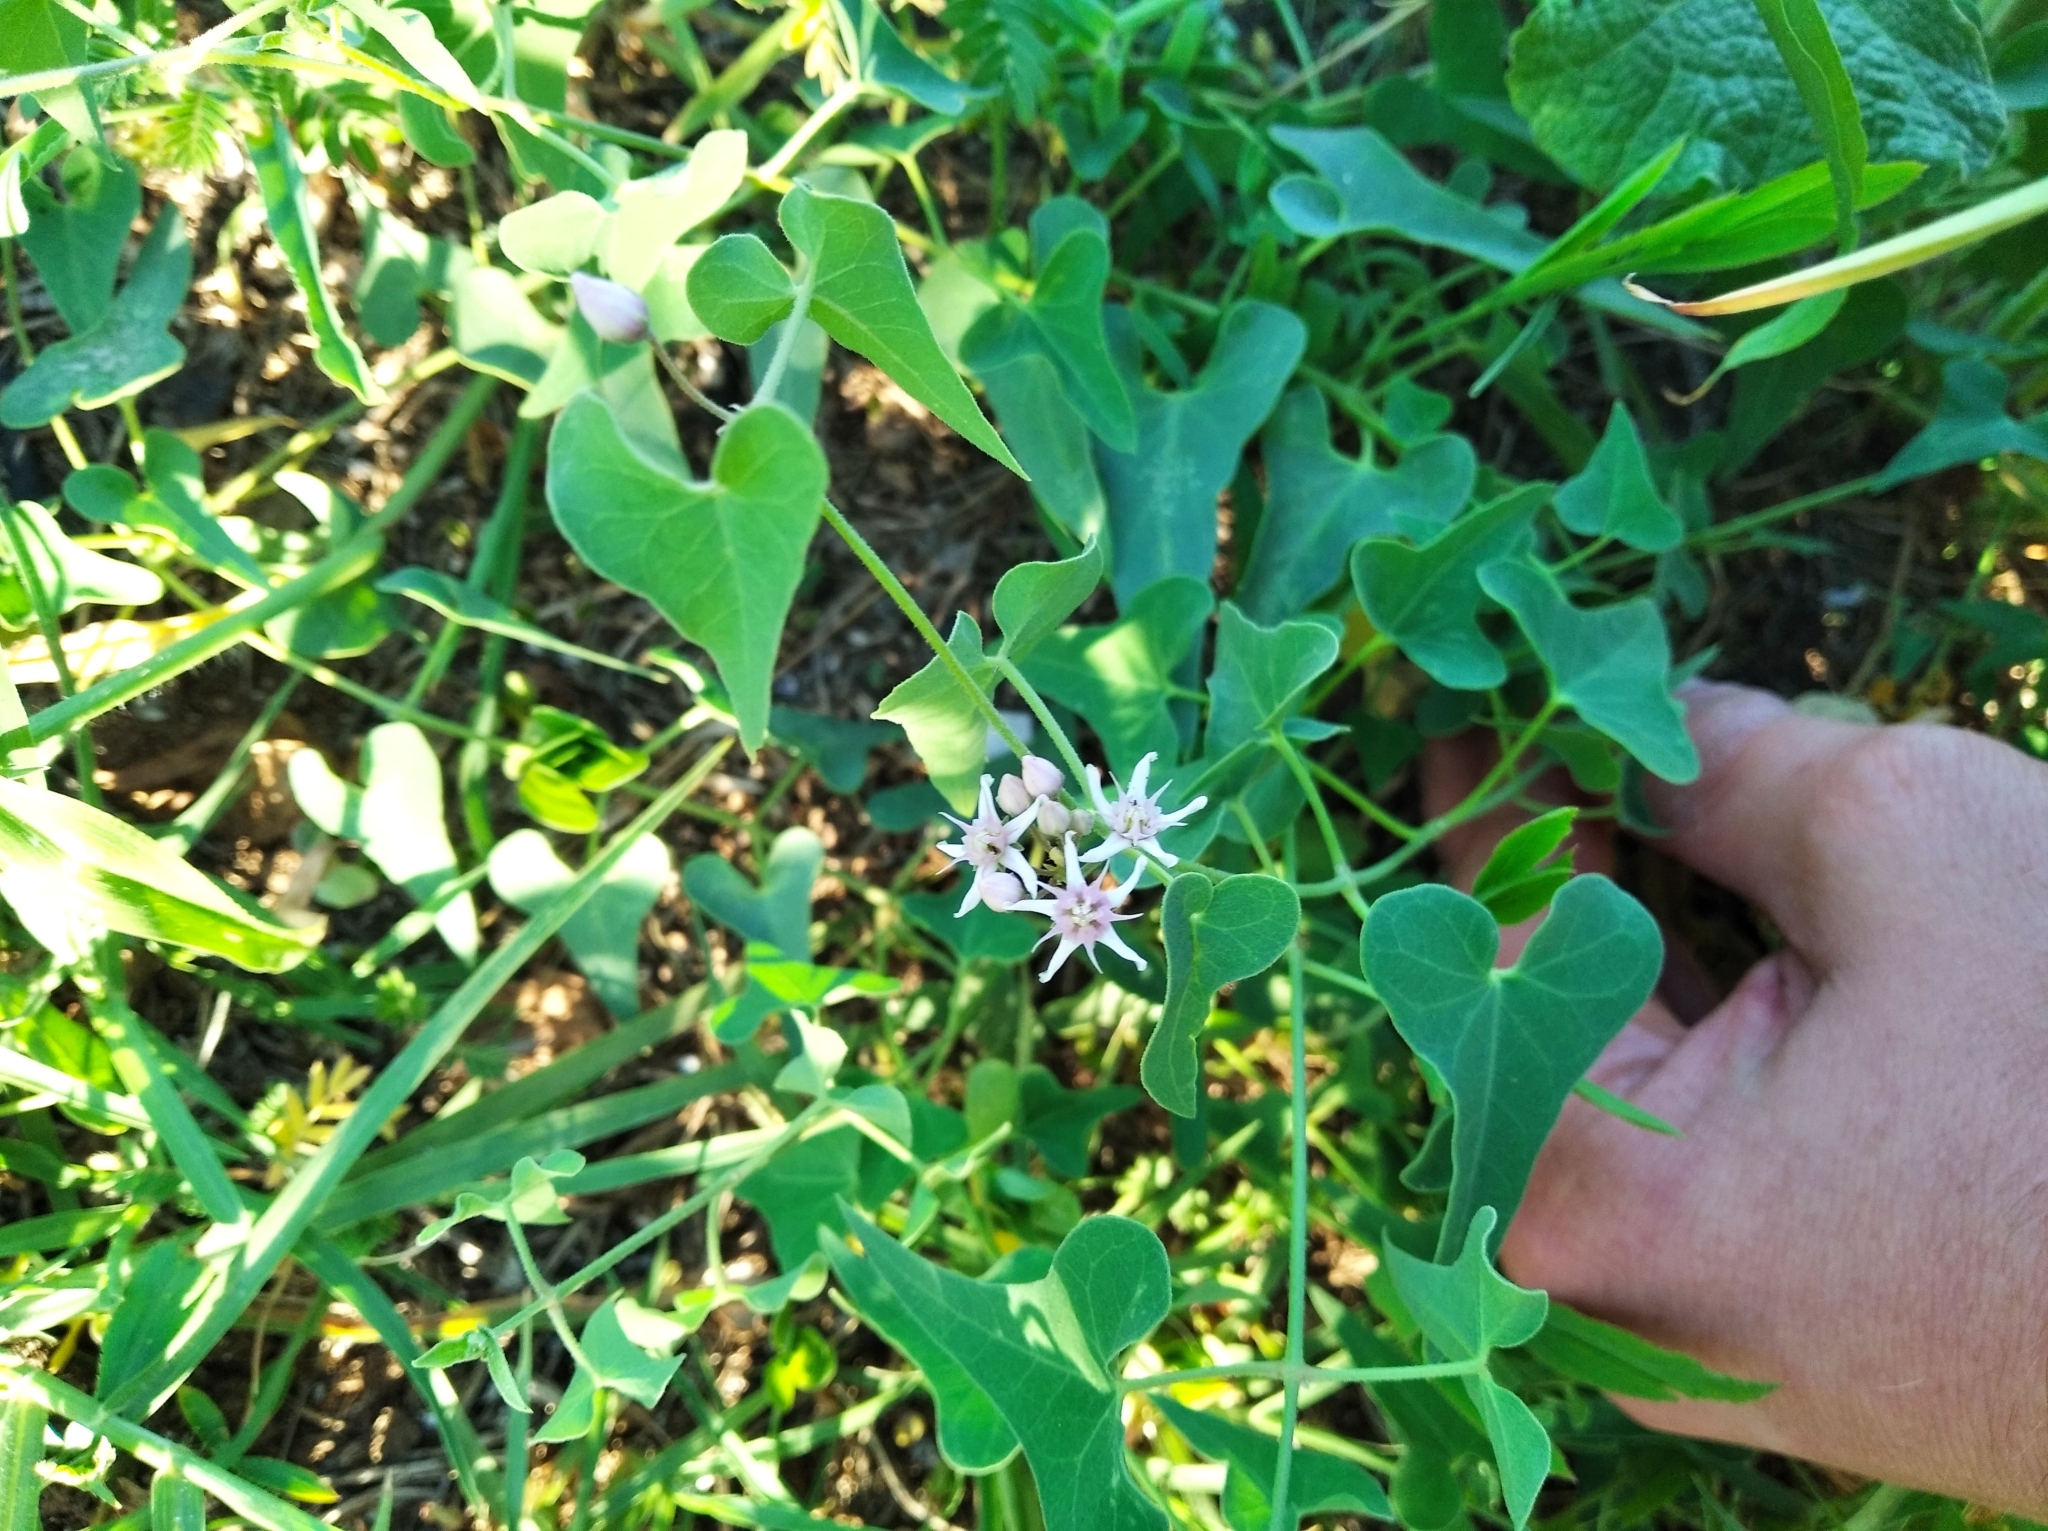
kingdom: Plantae
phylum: Tracheophyta
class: Magnoliopsida
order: Gentianales
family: Apocynaceae
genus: Cynanchum
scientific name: Cynanchum acutum
